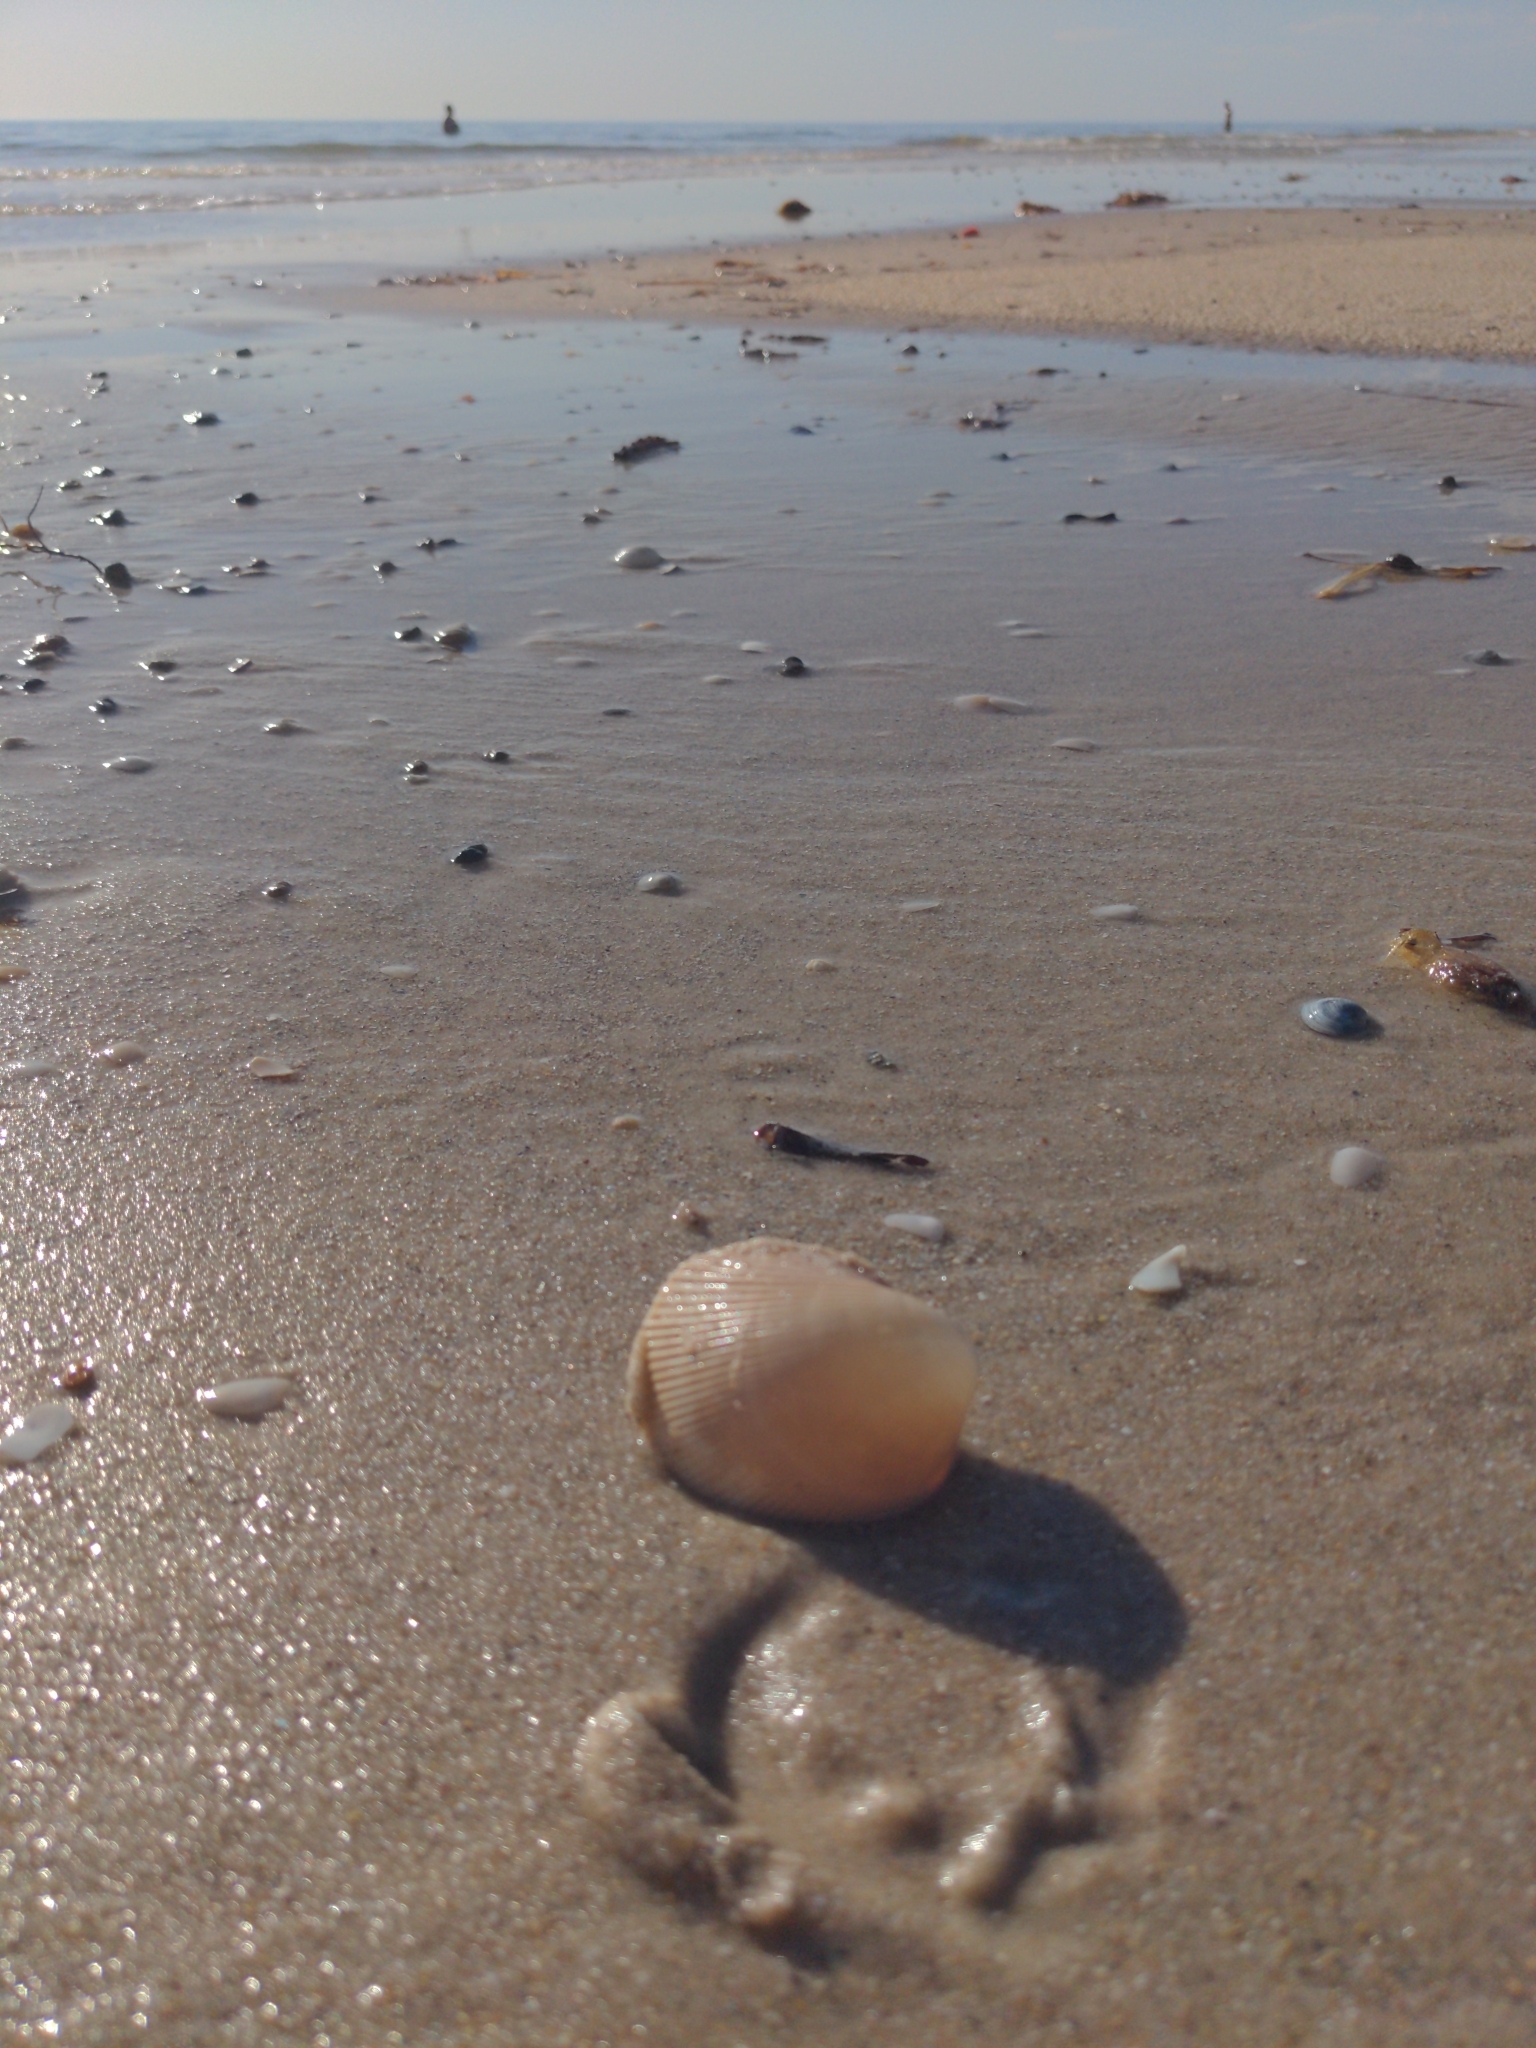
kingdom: Animalia
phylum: Mollusca
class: Bivalvia
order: Cardiida
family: Cardiidae
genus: Fulvia
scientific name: Fulvia tenuicostata
